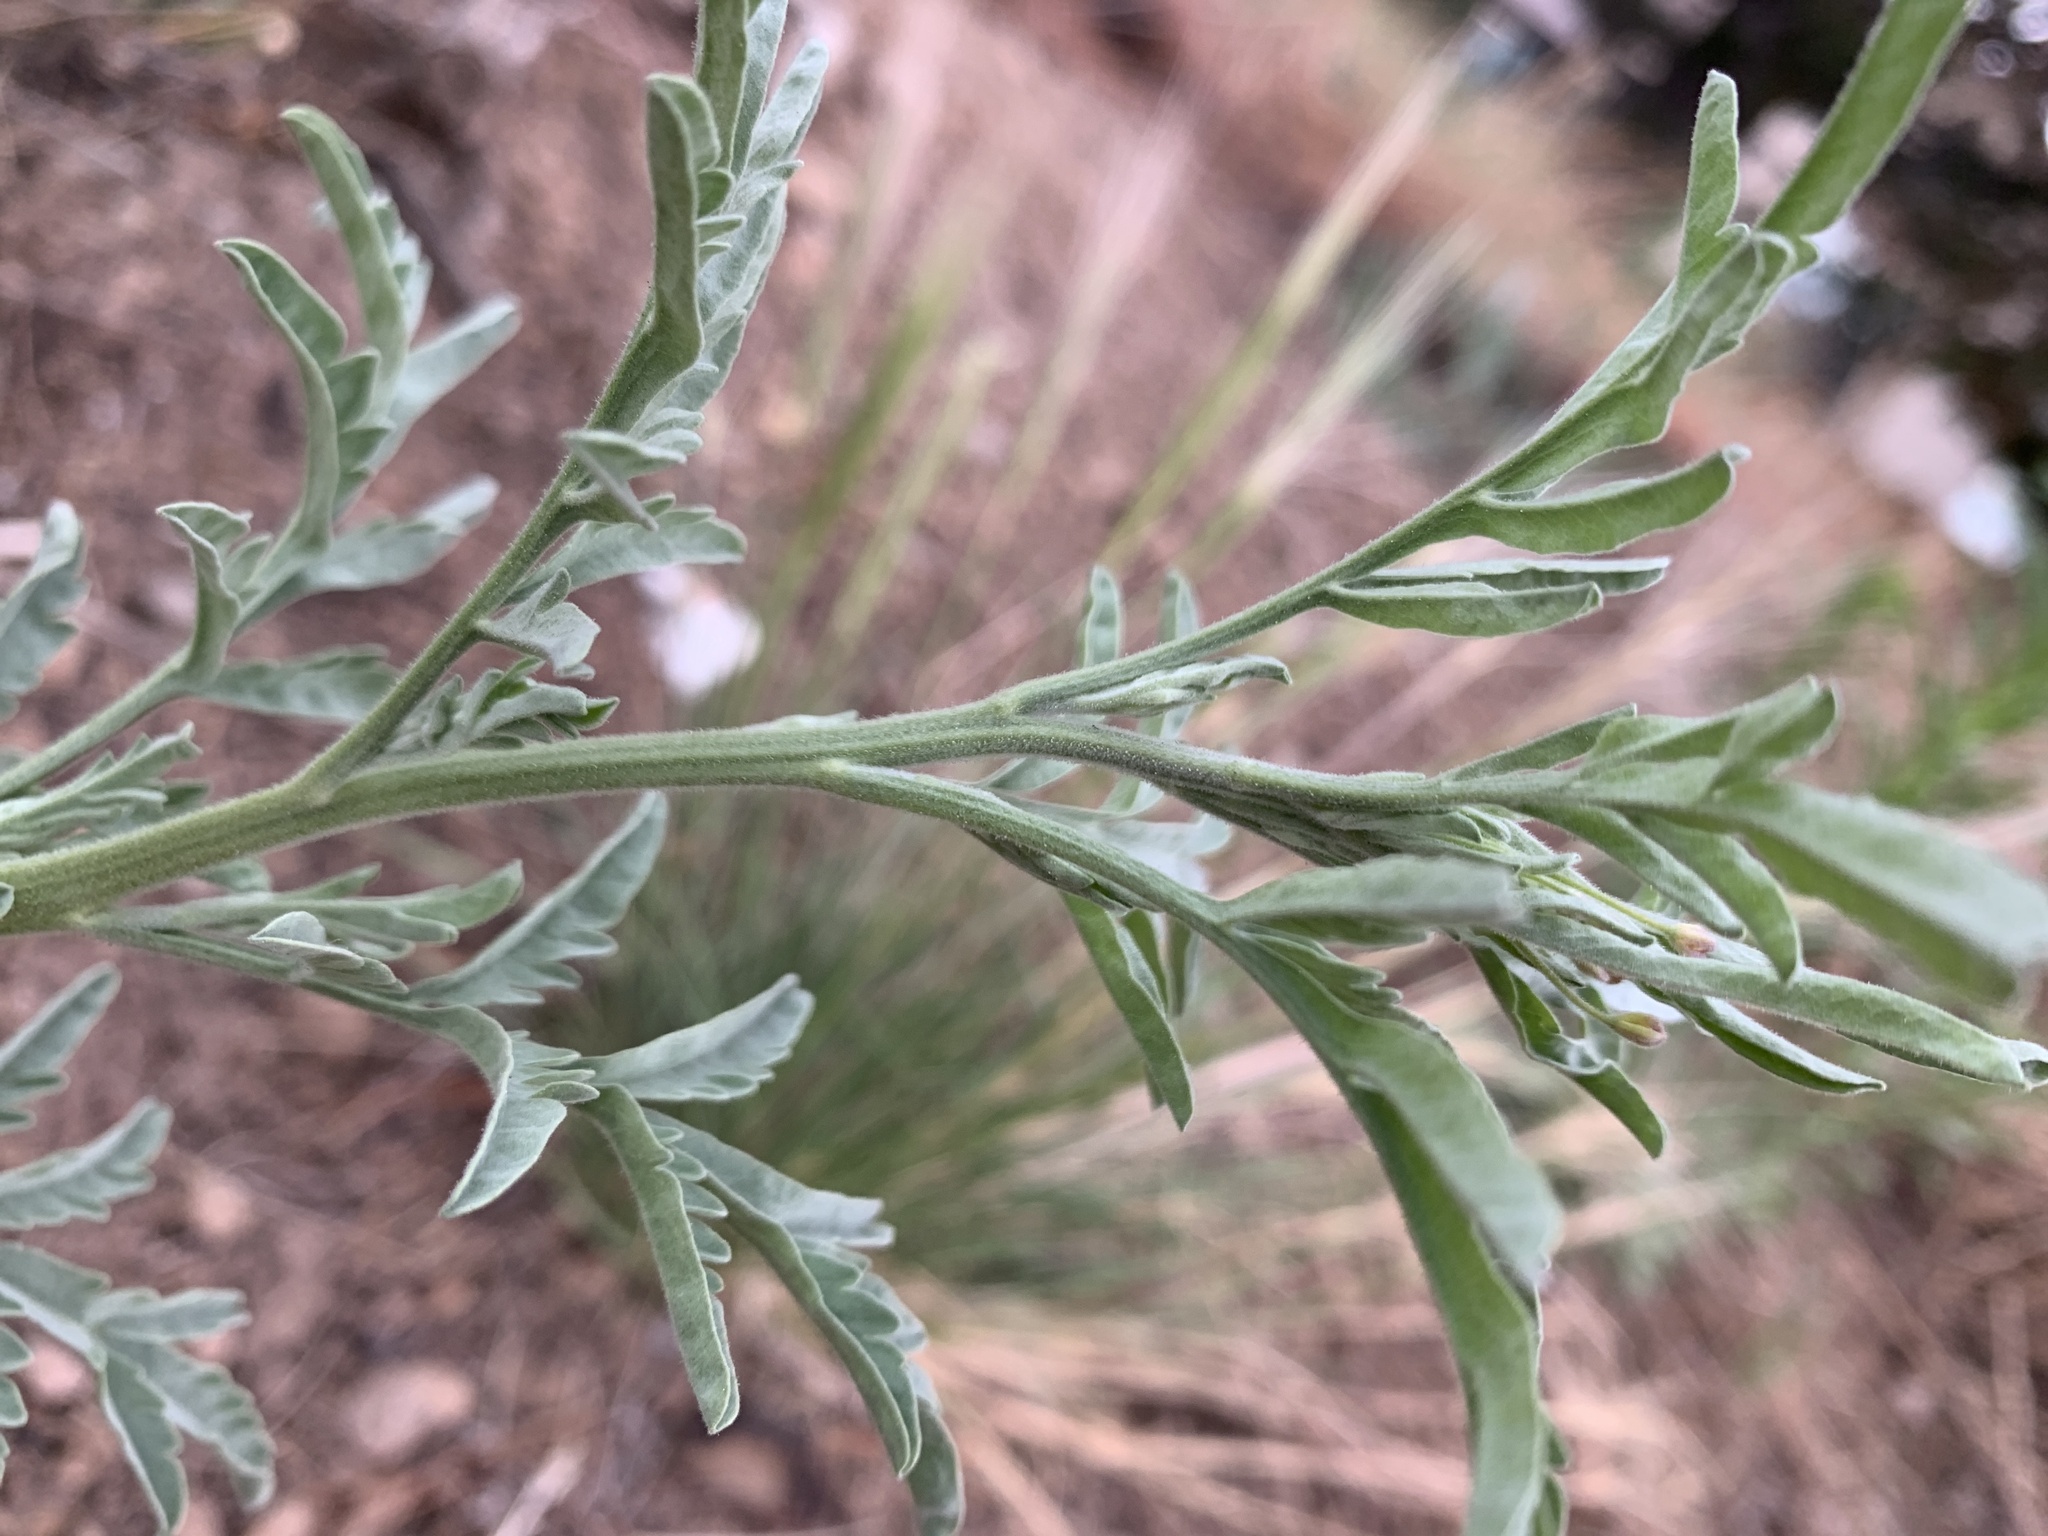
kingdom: Plantae
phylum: Tracheophyta
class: Magnoliopsida
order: Brassicales
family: Brassicaceae
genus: Descurainia
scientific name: Descurainia adenophora
